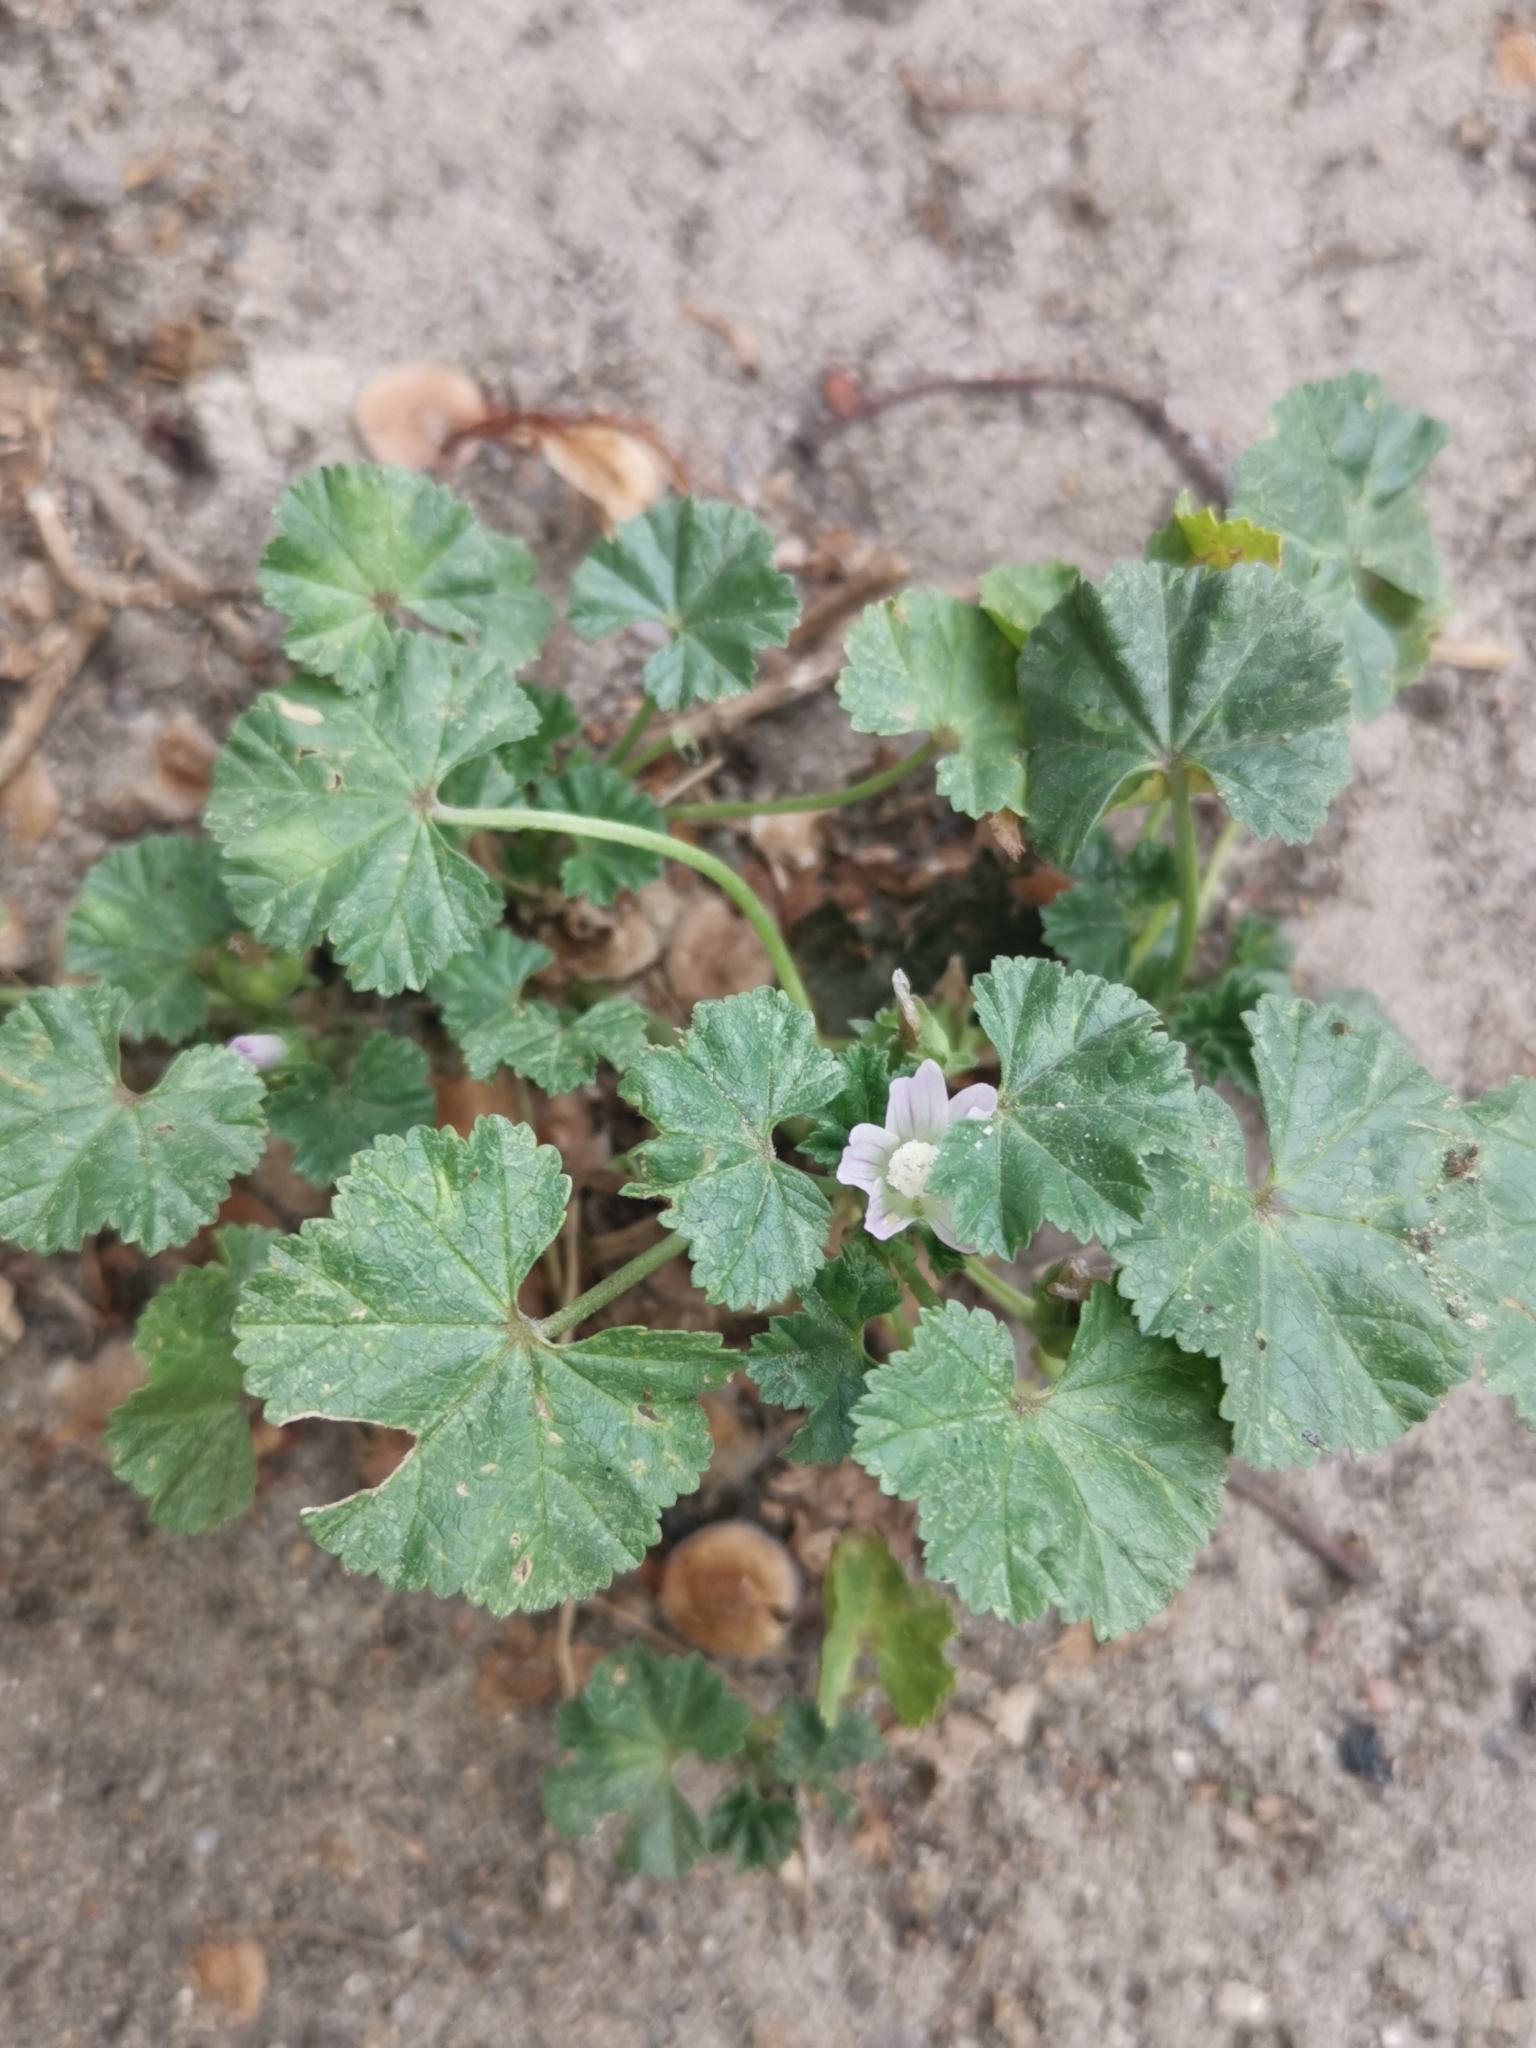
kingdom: Plantae
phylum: Tracheophyta
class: Magnoliopsida
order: Malvales
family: Malvaceae
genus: Malva
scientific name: Malva neglecta
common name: Common mallow
